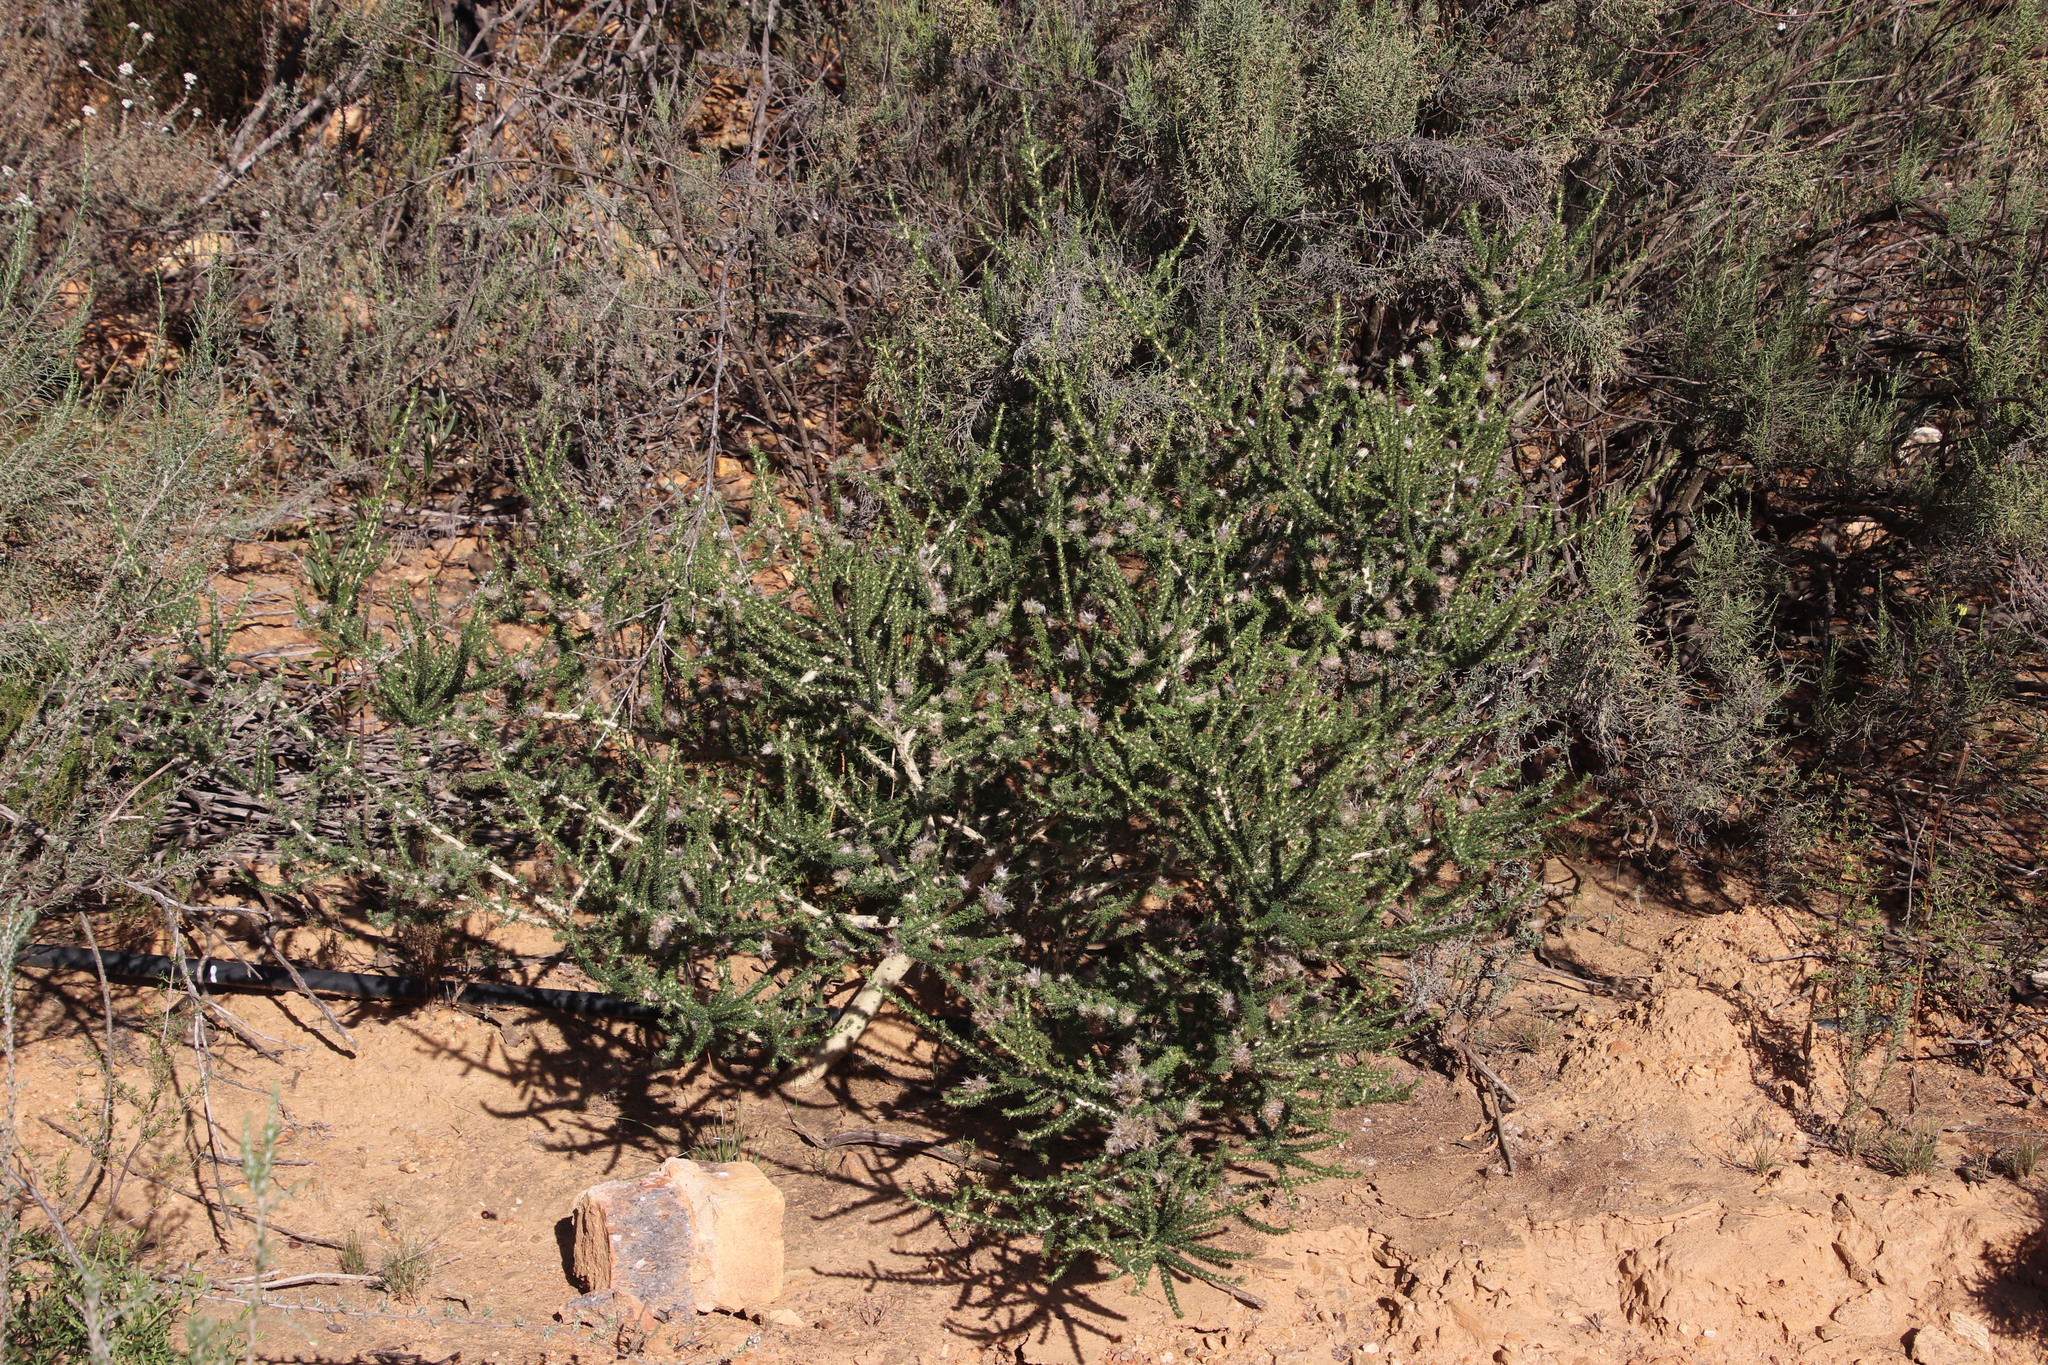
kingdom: Plantae
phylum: Tracheophyta
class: Magnoliopsida
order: Fabales
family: Fabaceae
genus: Aspalathus
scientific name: Aspalathus aculeata
